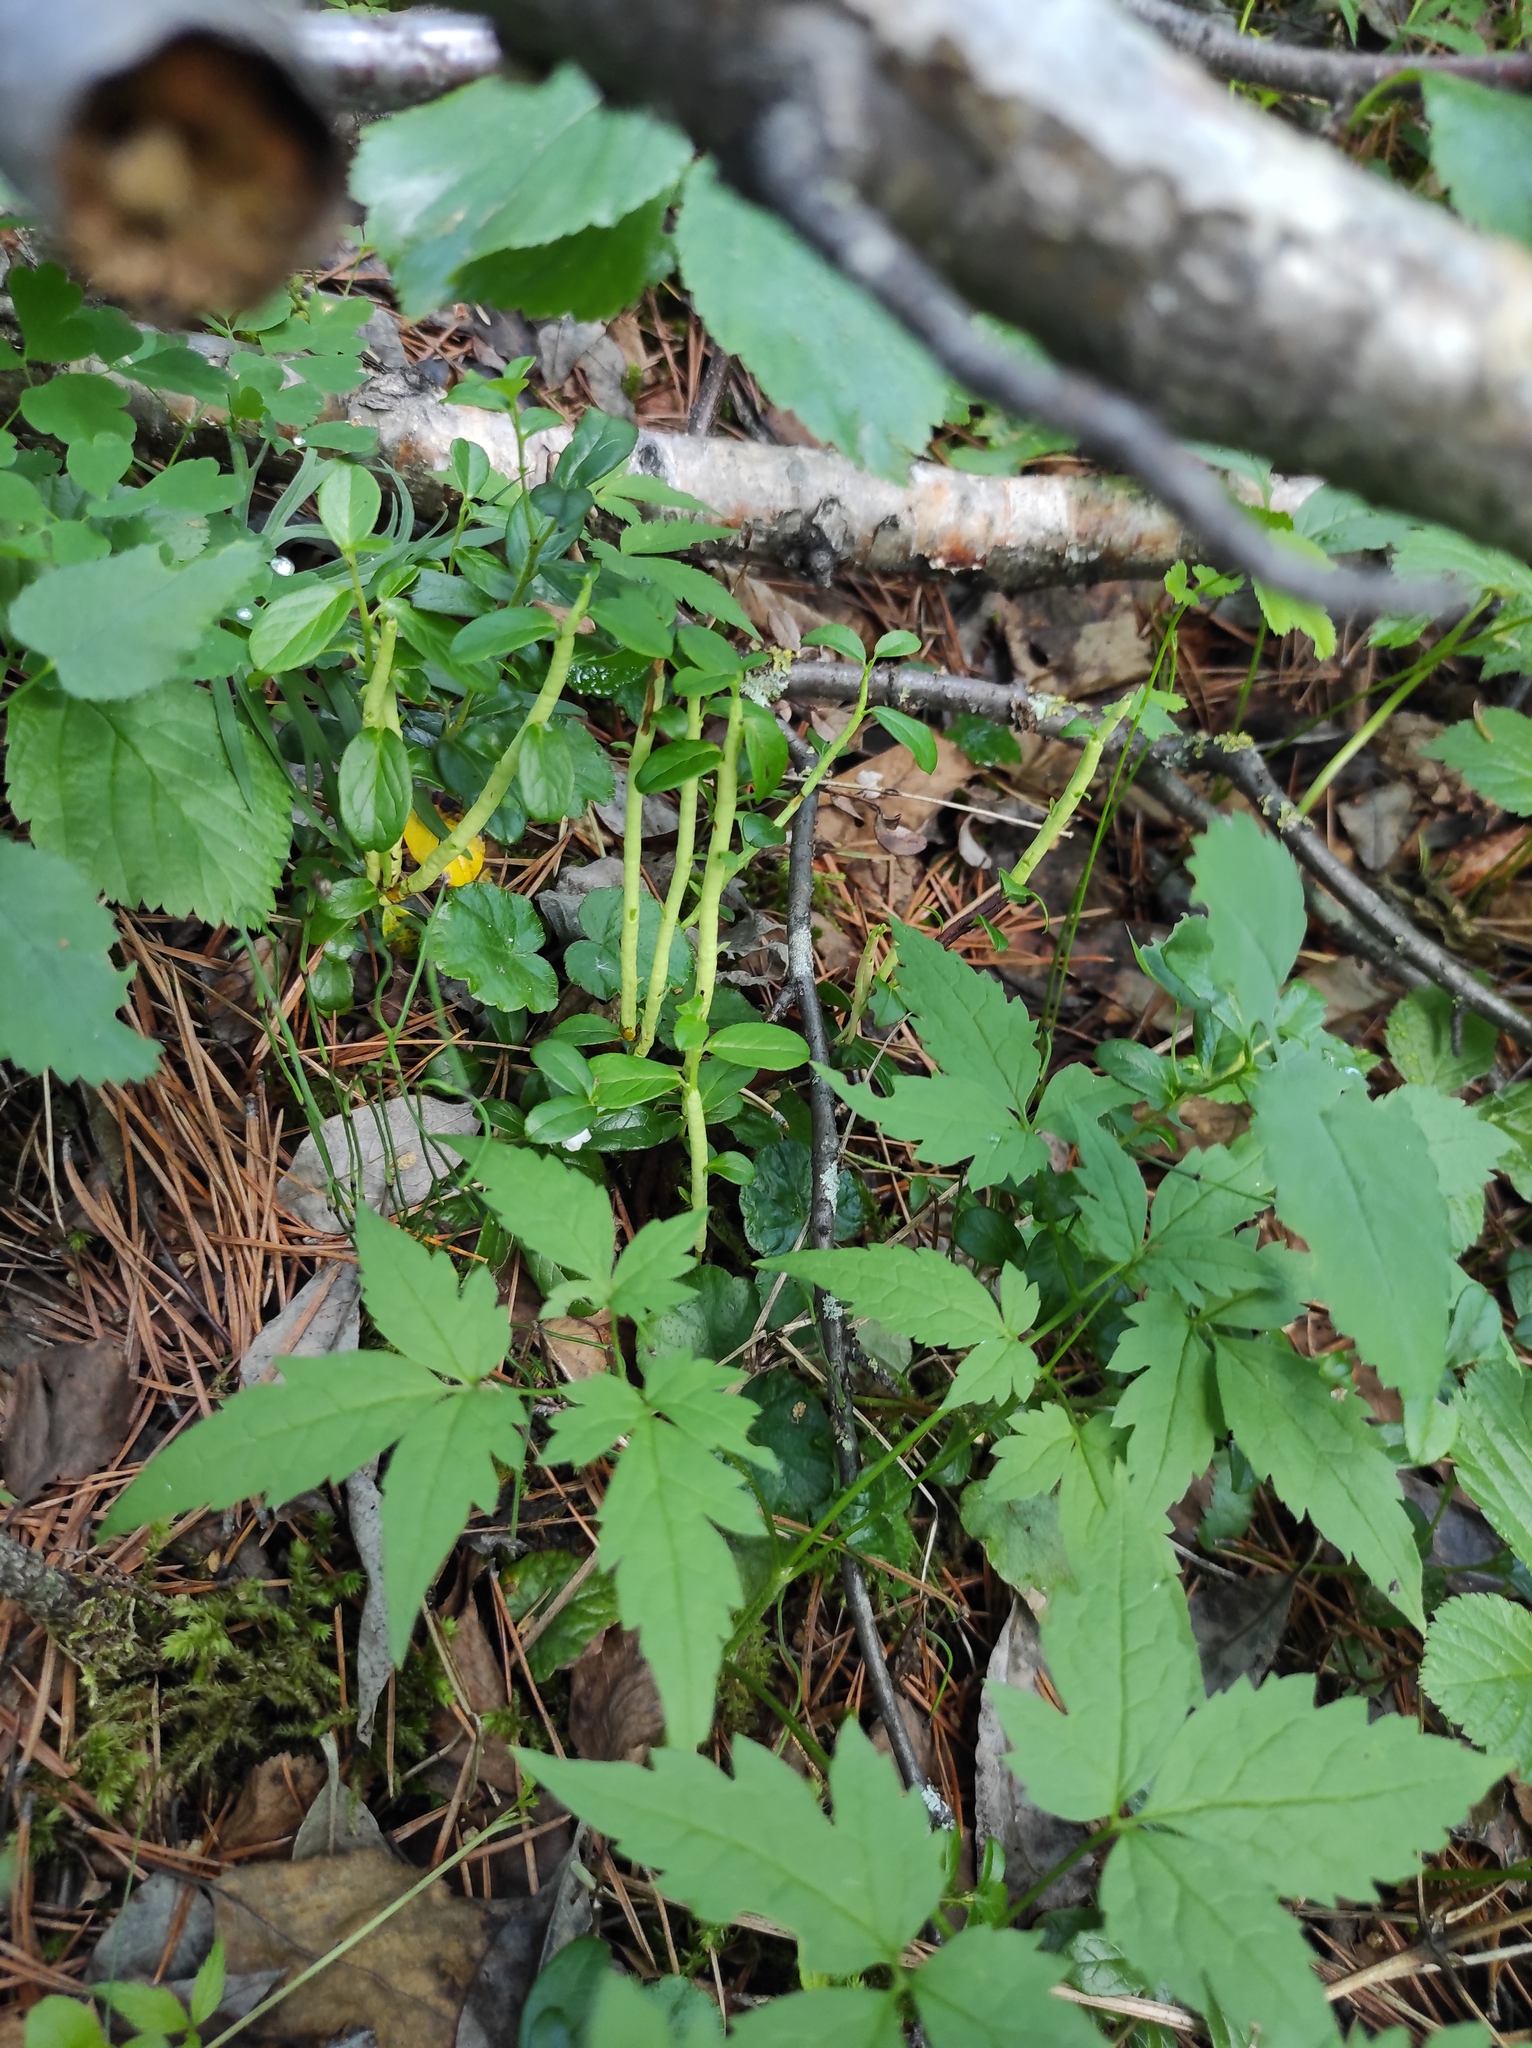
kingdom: Plantae
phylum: Tracheophyta
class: Magnoliopsida
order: Ericales
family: Ericaceae
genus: Vaccinium
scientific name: Vaccinium vitis-idaea
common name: Cowberry
